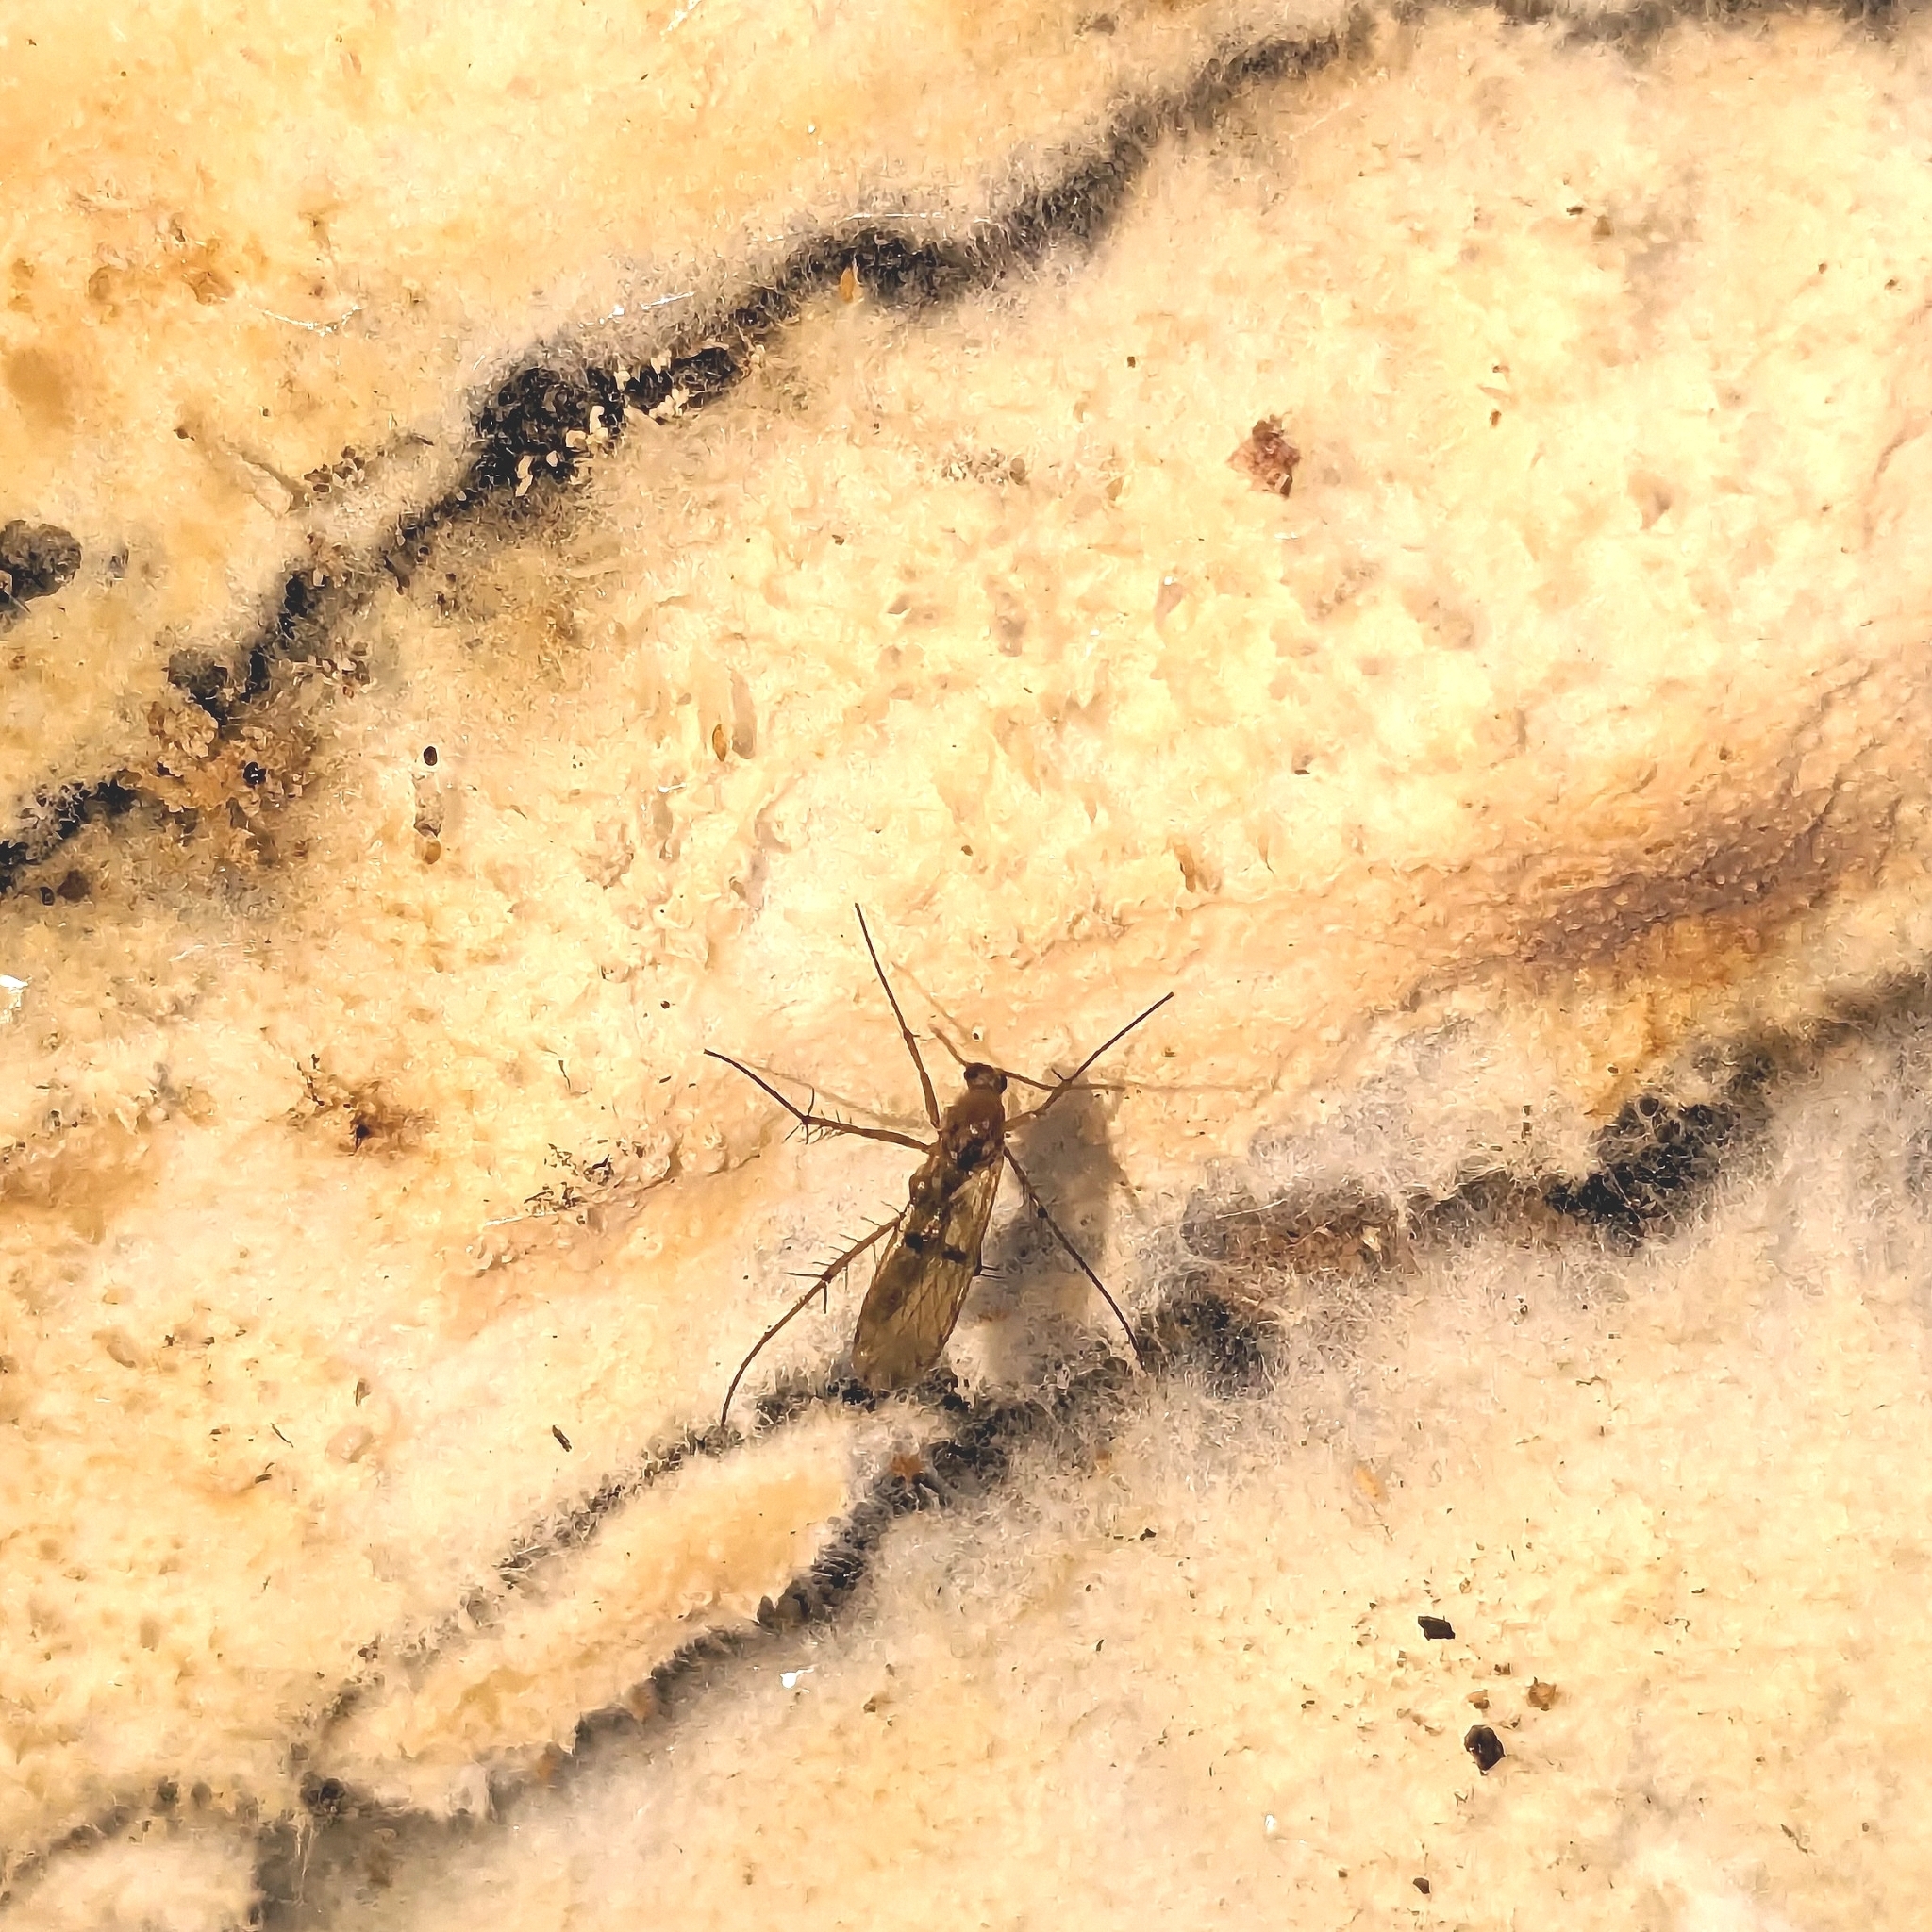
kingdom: Animalia
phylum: Arthropoda
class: Insecta
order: Diptera
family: Mycetophilidae
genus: Mycetophila
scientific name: Mycetophila marginepunctata
